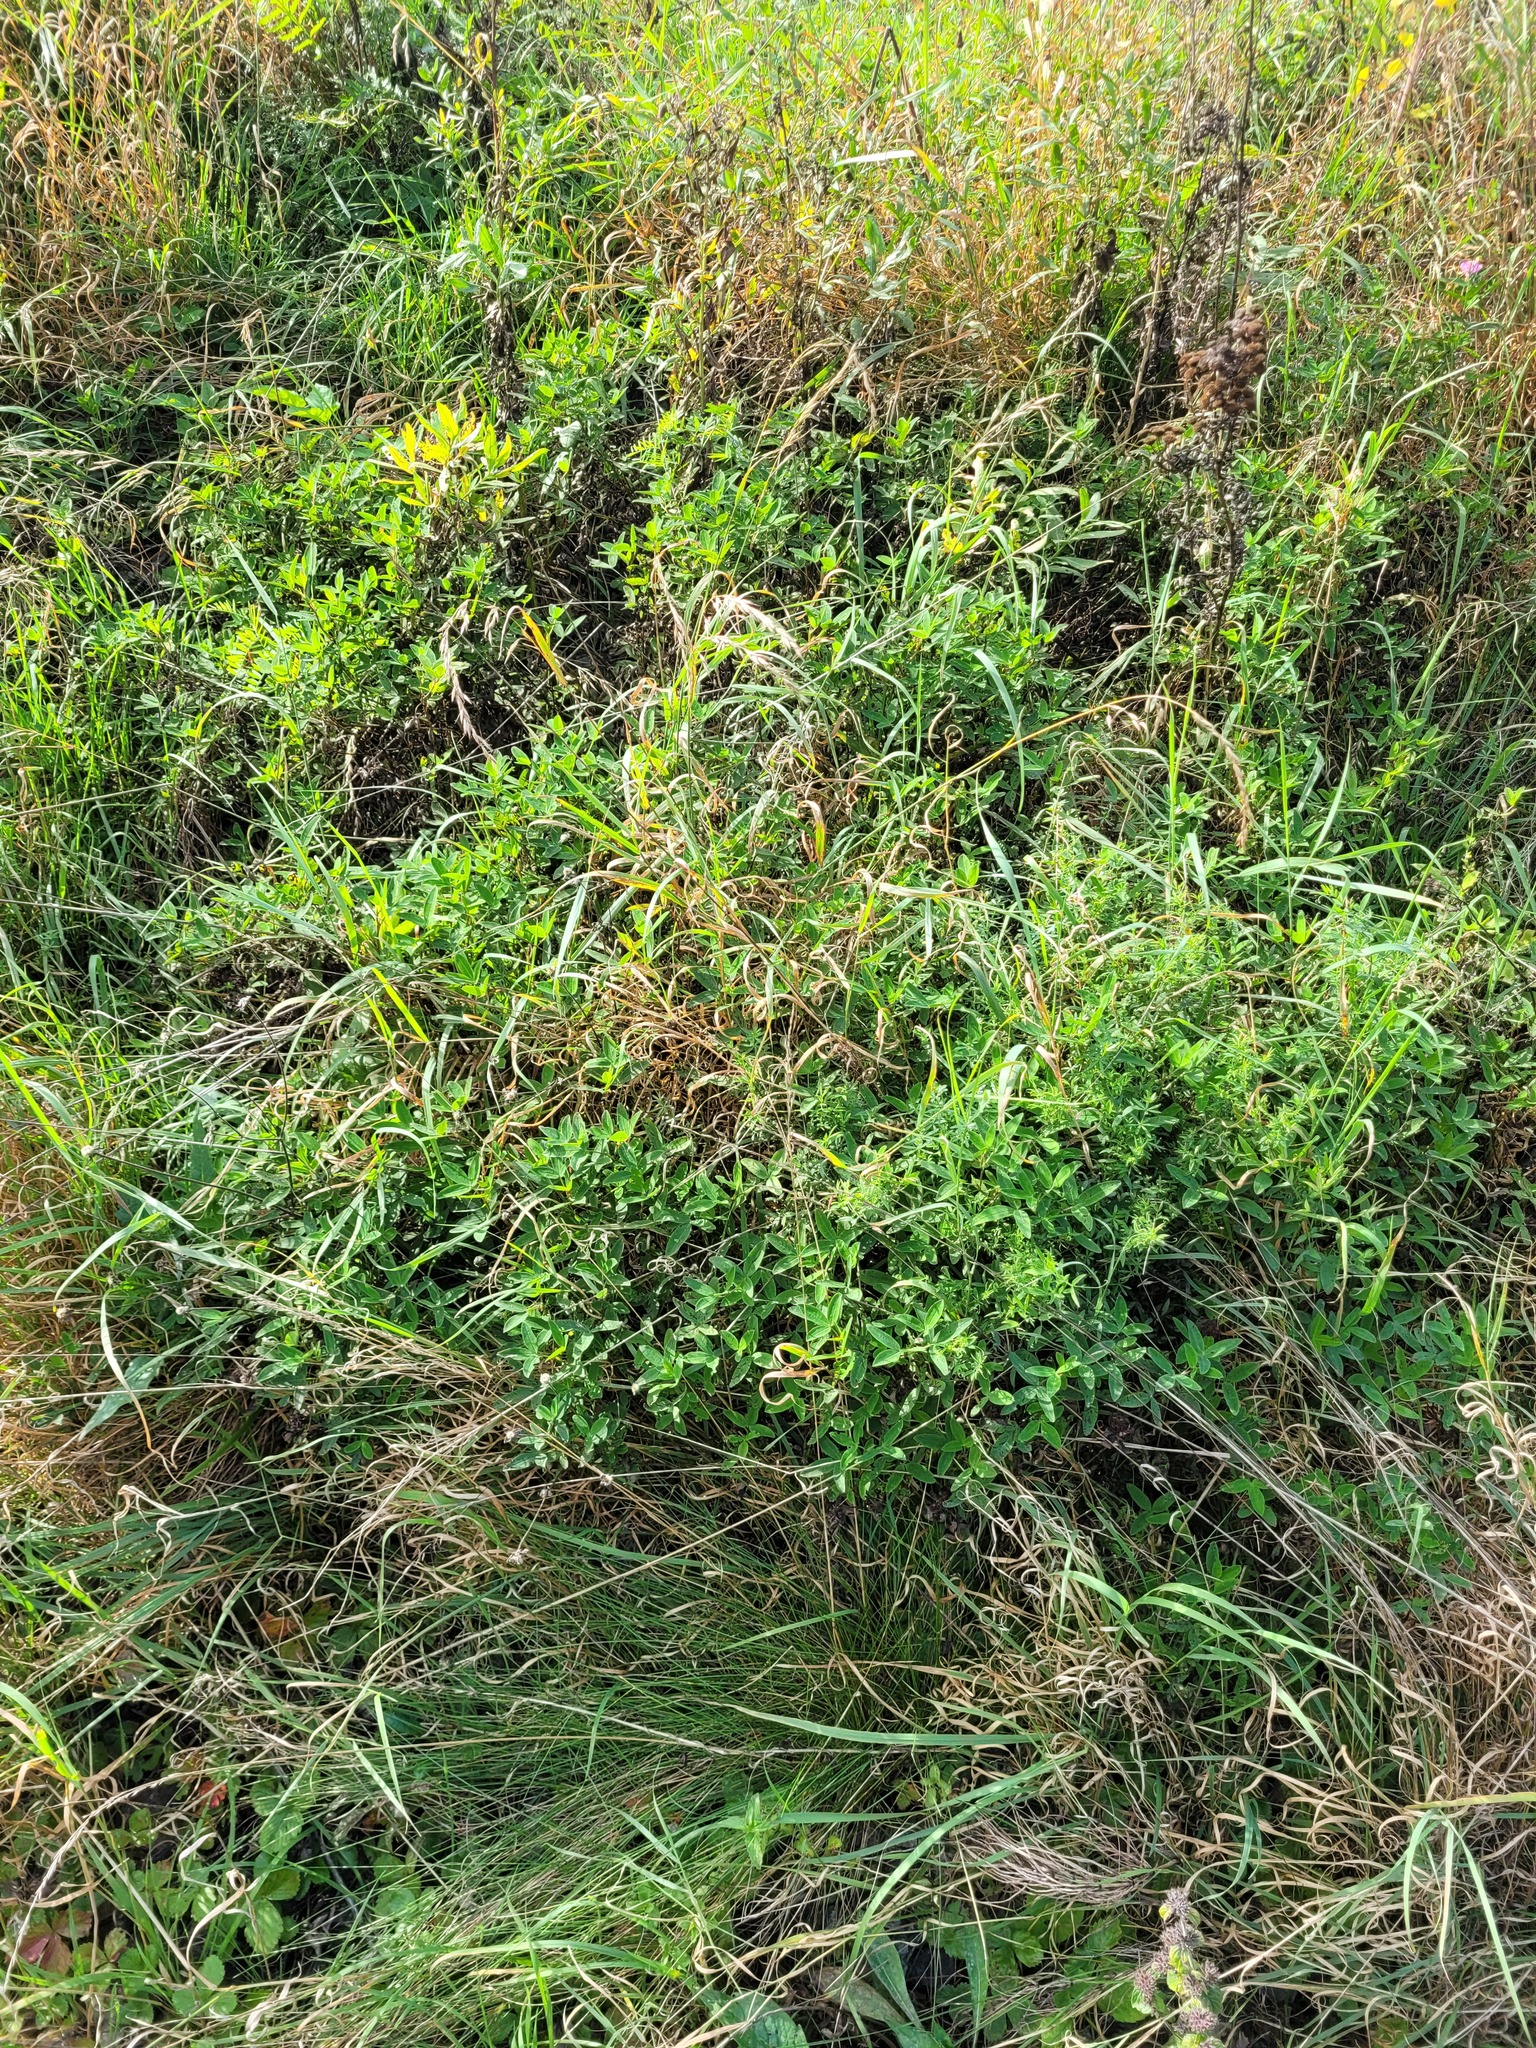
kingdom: Plantae
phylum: Tracheophyta
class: Magnoliopsida
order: Fabales
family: Fabaceae
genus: Trifolium
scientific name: Trifolium medium
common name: Zigzag clover
